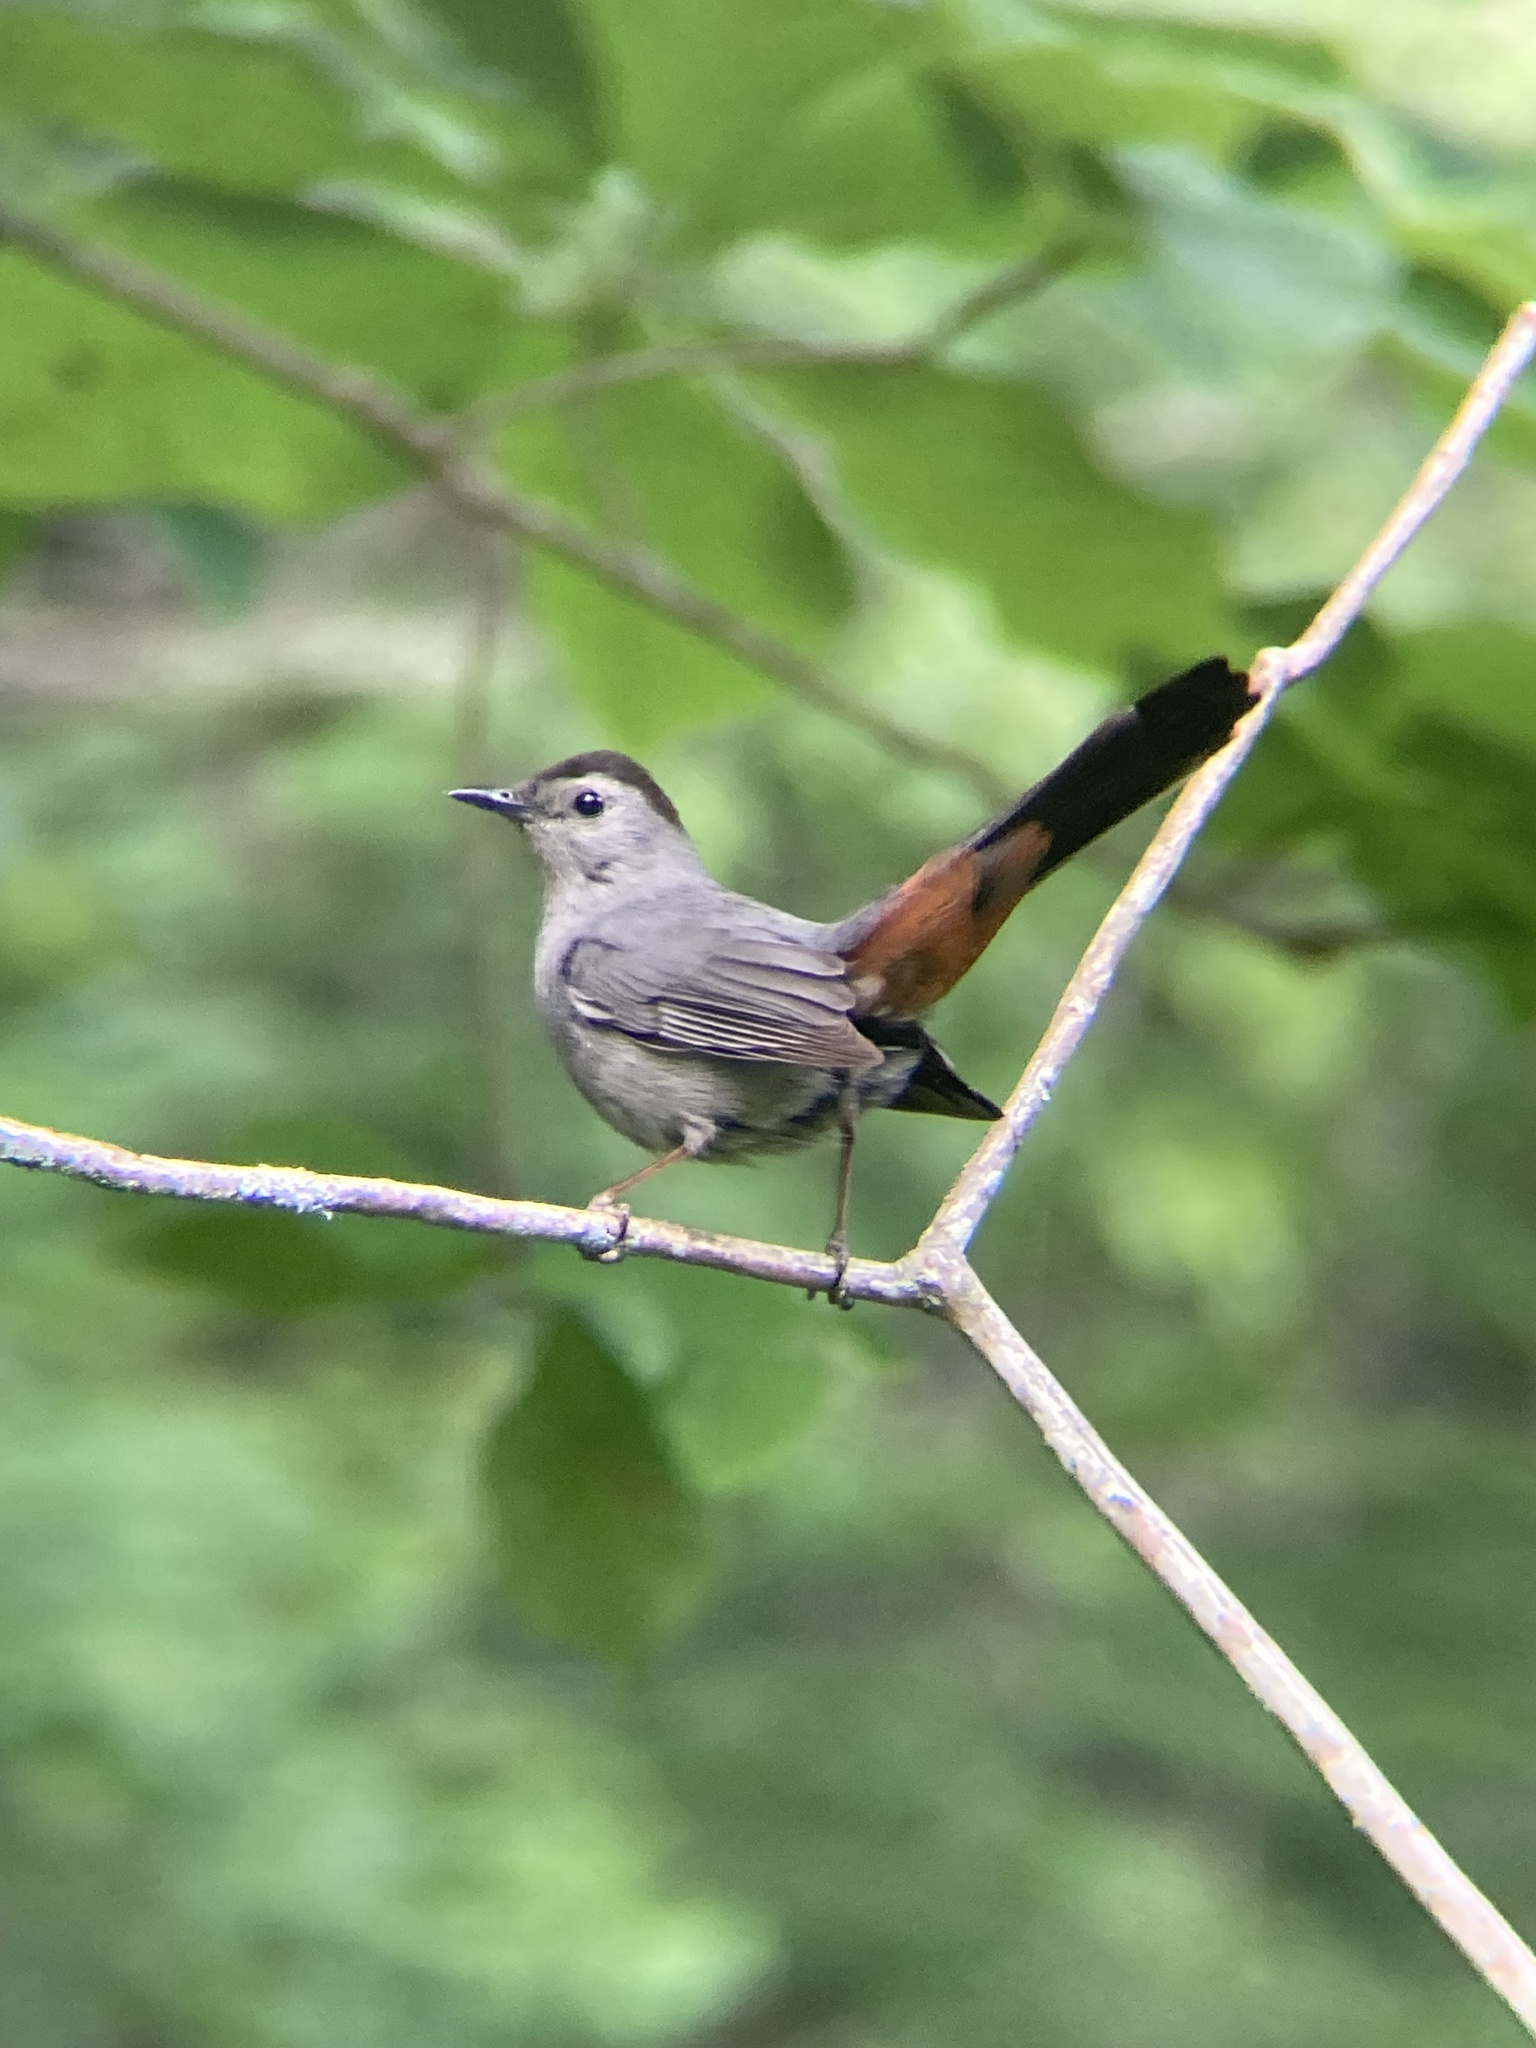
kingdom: Animalia
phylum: Chordata
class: Aves
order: Passeriformes
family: Mimidae
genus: Dumetella
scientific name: Dumetella carolinensis
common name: Gray catbird
